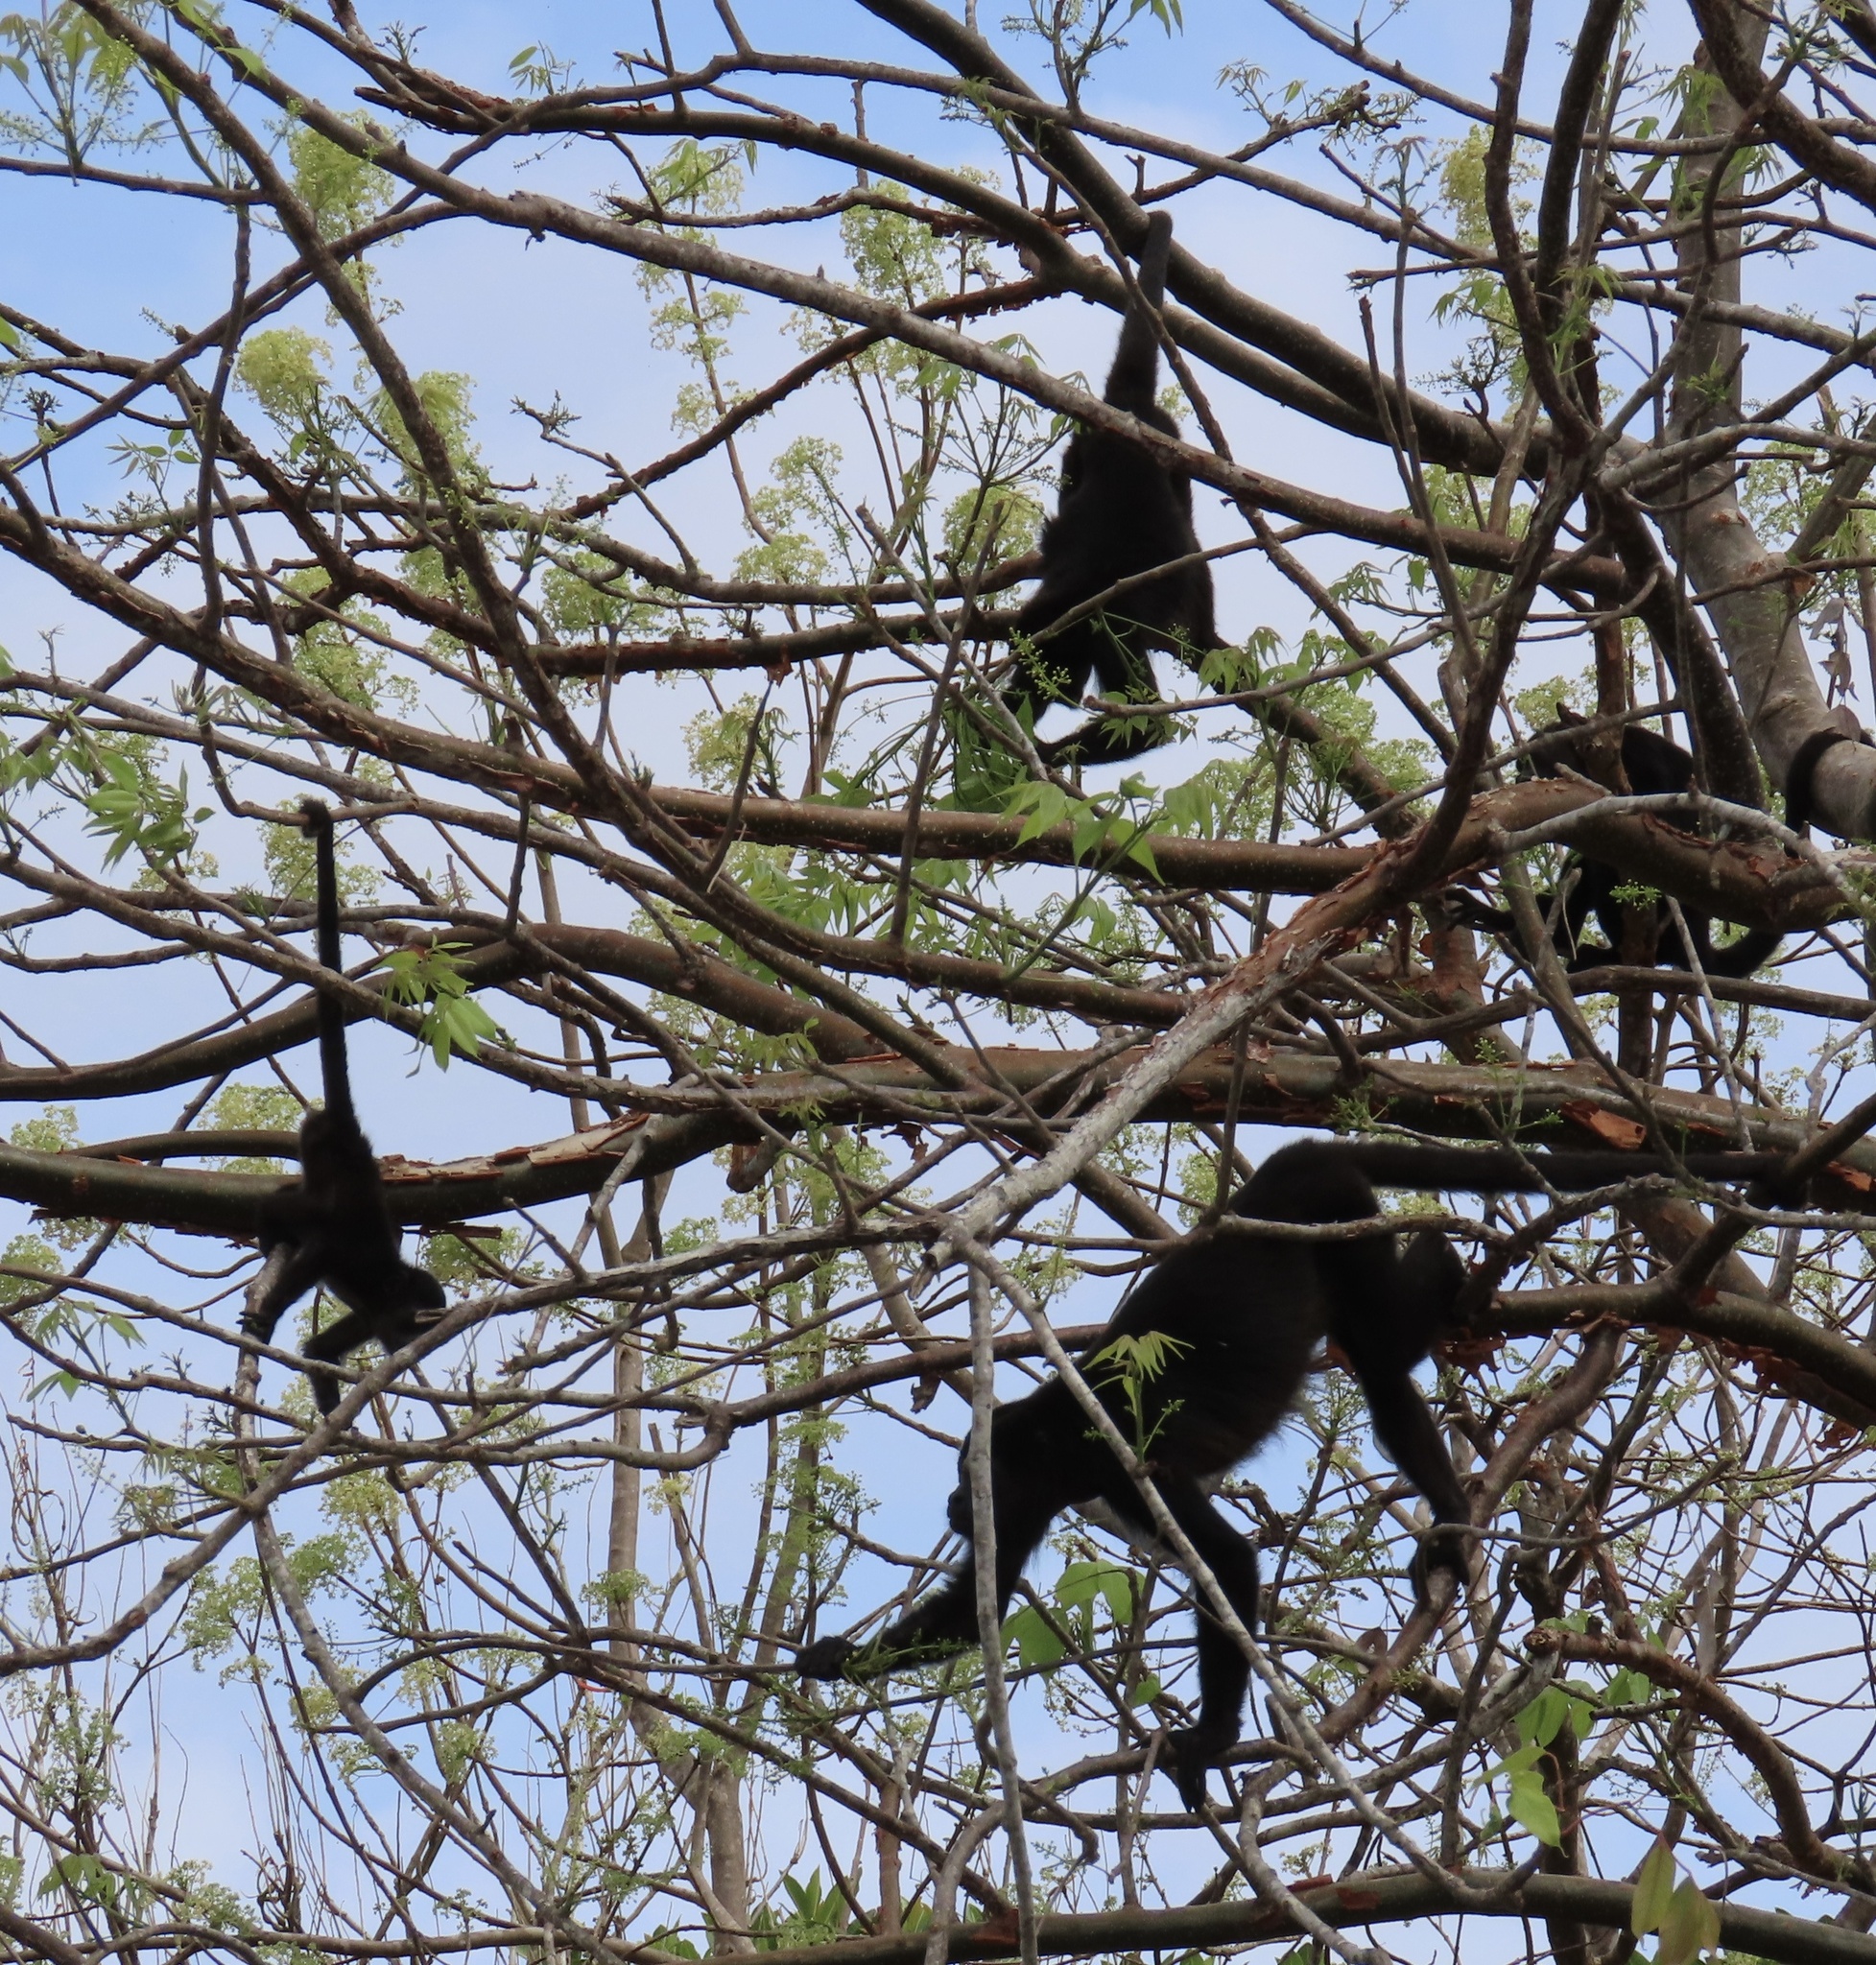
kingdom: Animalia
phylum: Chordata
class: Mammalia
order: Primates
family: Atelidae
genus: Alouatta
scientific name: Alouatta palliata
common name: Mantled howler
